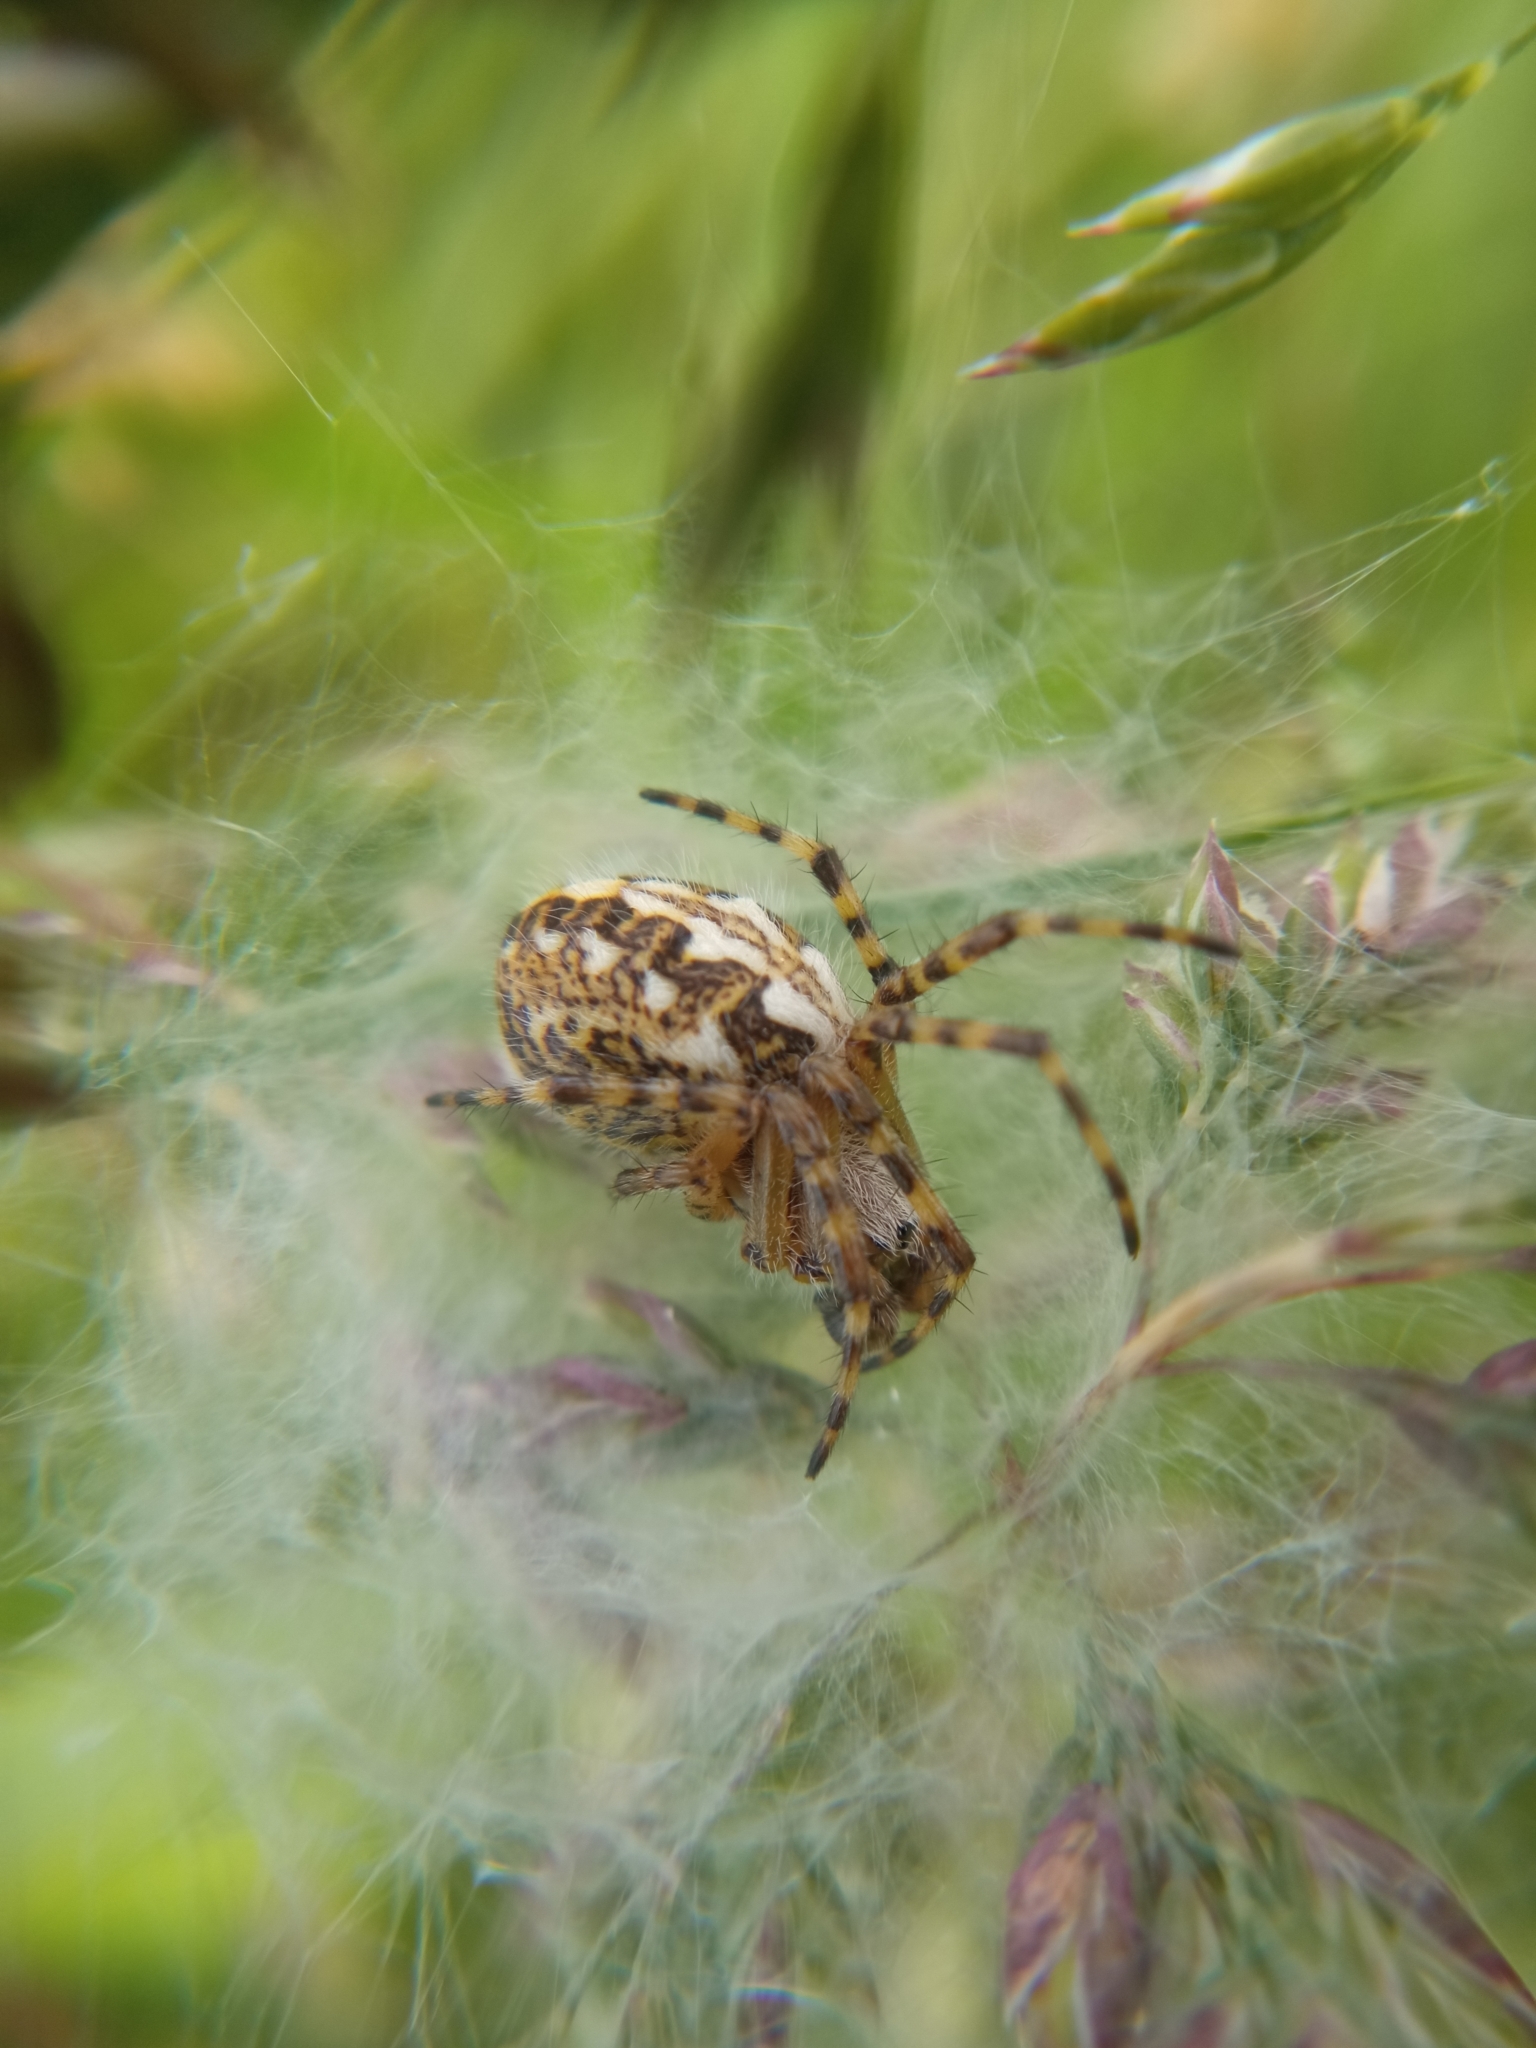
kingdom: Animalia
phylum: Arthropoda
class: Arachnida
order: Araneae
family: Araneidae
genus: Aculepeira
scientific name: Aculepeira ceropegia
